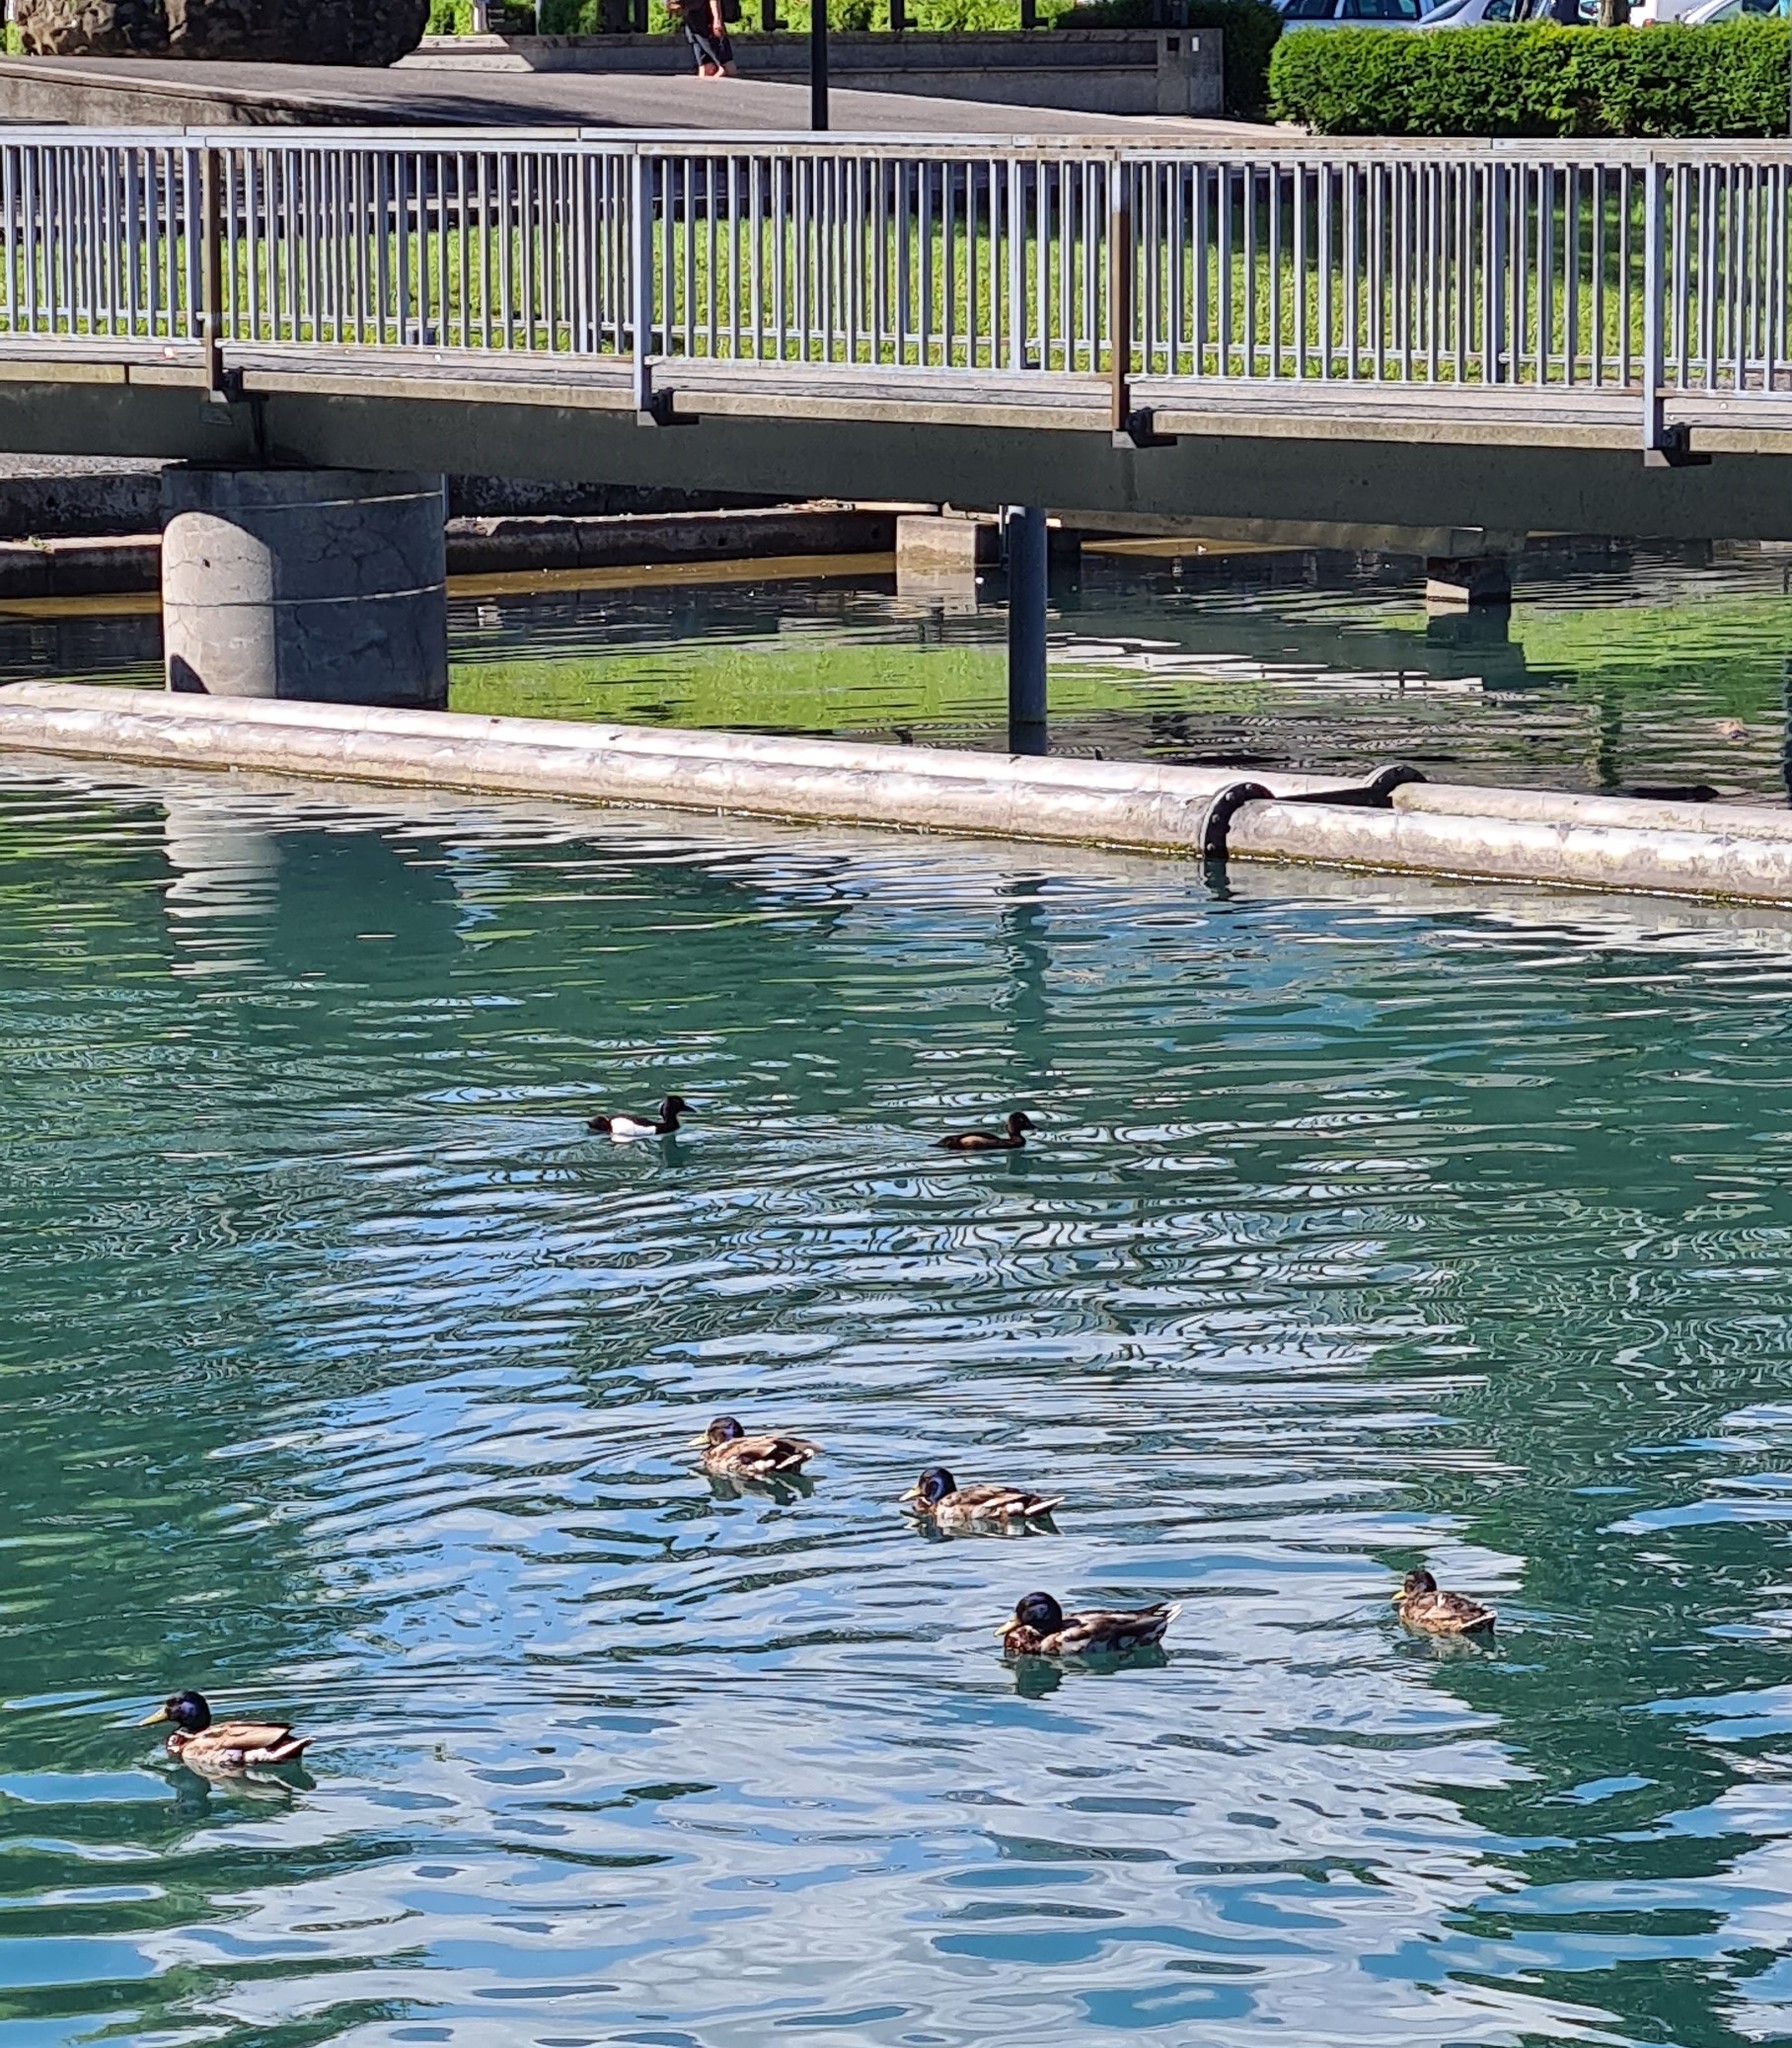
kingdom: Animalia
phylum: Chordata
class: Aves
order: Anseriformes
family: Anatidae
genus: Aythya
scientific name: Aythya fuligula
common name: Tufted duck
